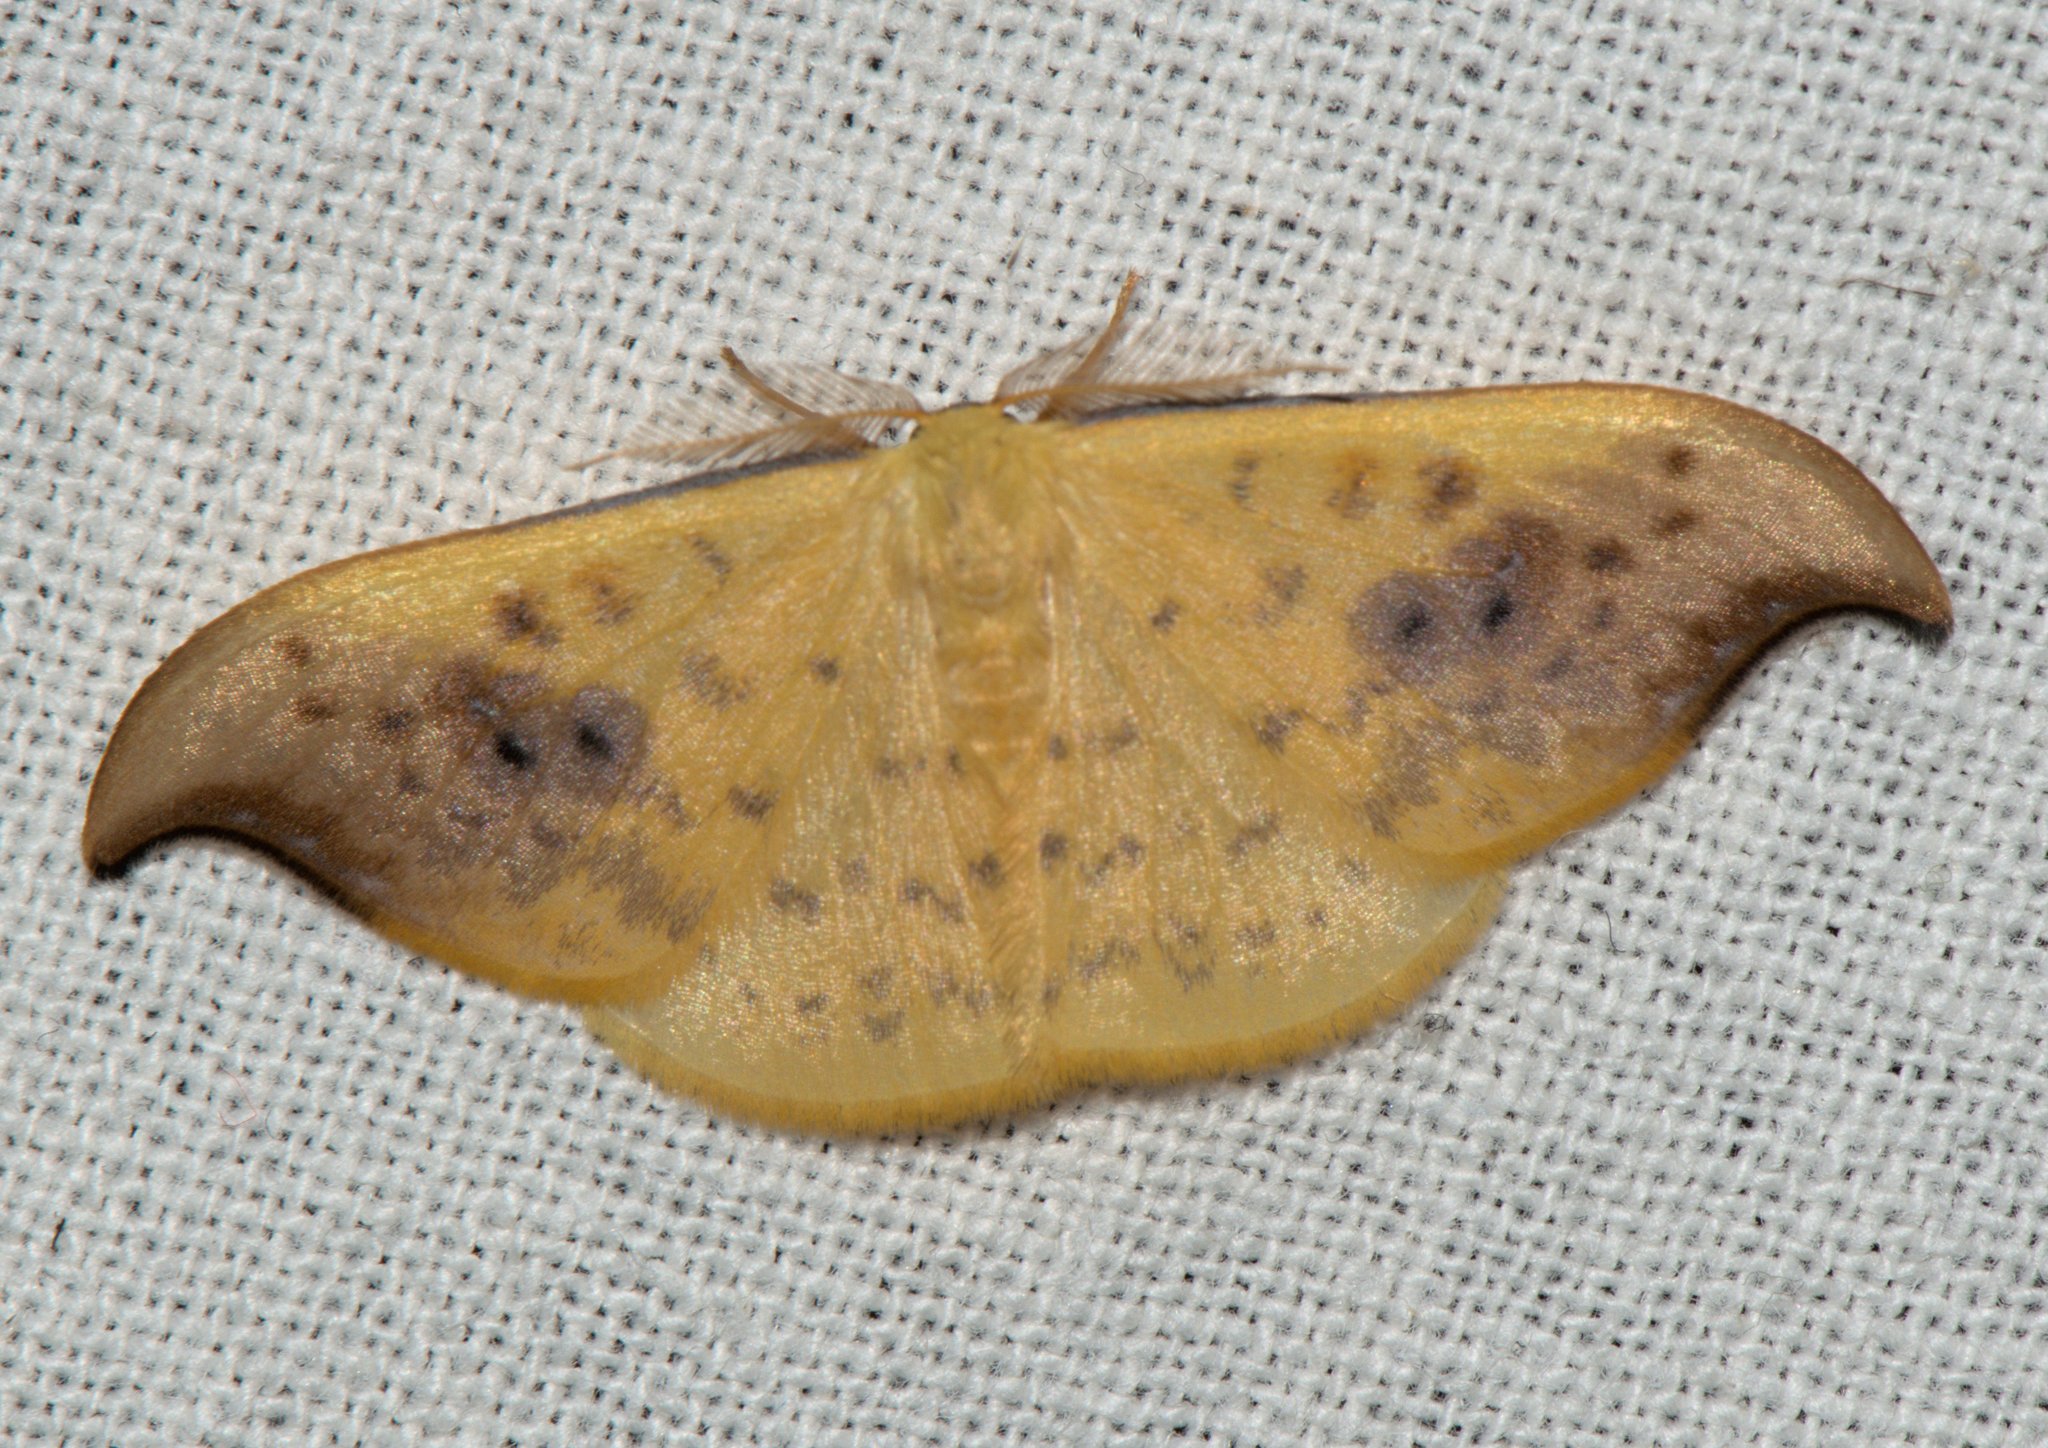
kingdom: Animalia
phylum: Arthropoda
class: Insecta
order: Lepidoptera
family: Drepanidae
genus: Tridrepana
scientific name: Tridrepana sadana
